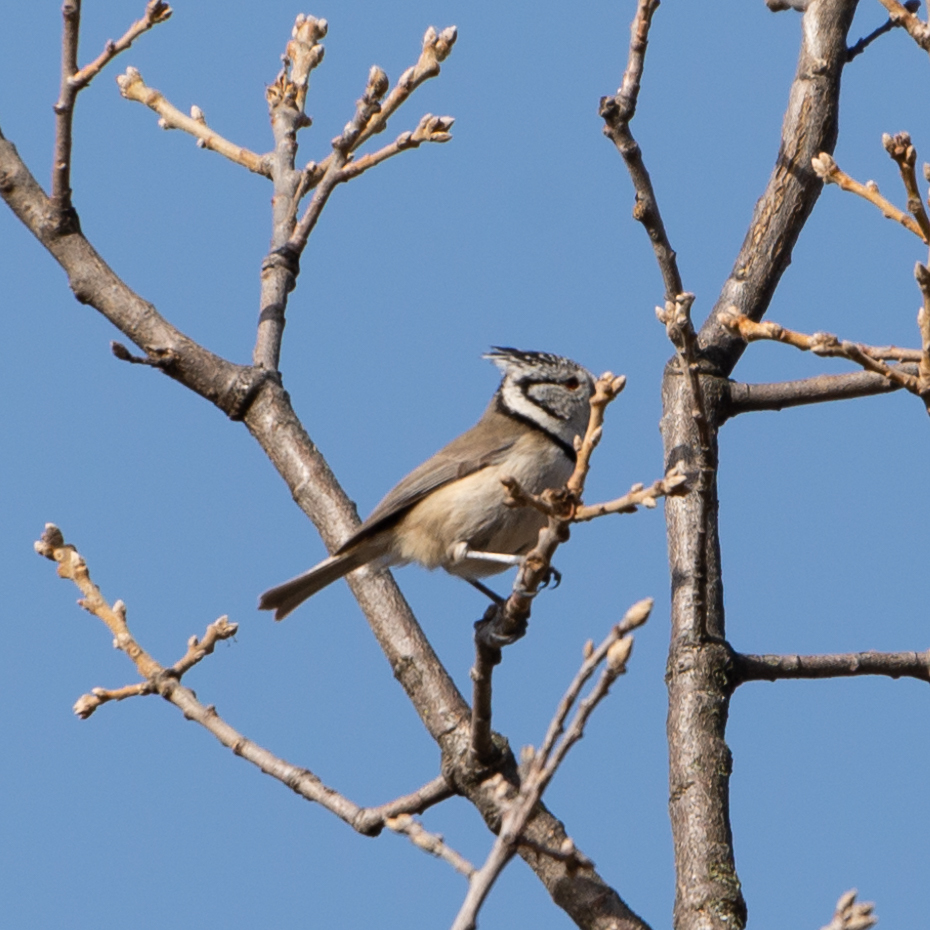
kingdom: Animalia
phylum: Chordata
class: Aves
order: Passeriformes
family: Paridae
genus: Lophophanes
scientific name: Lophophanes cristatus
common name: European crested tit
